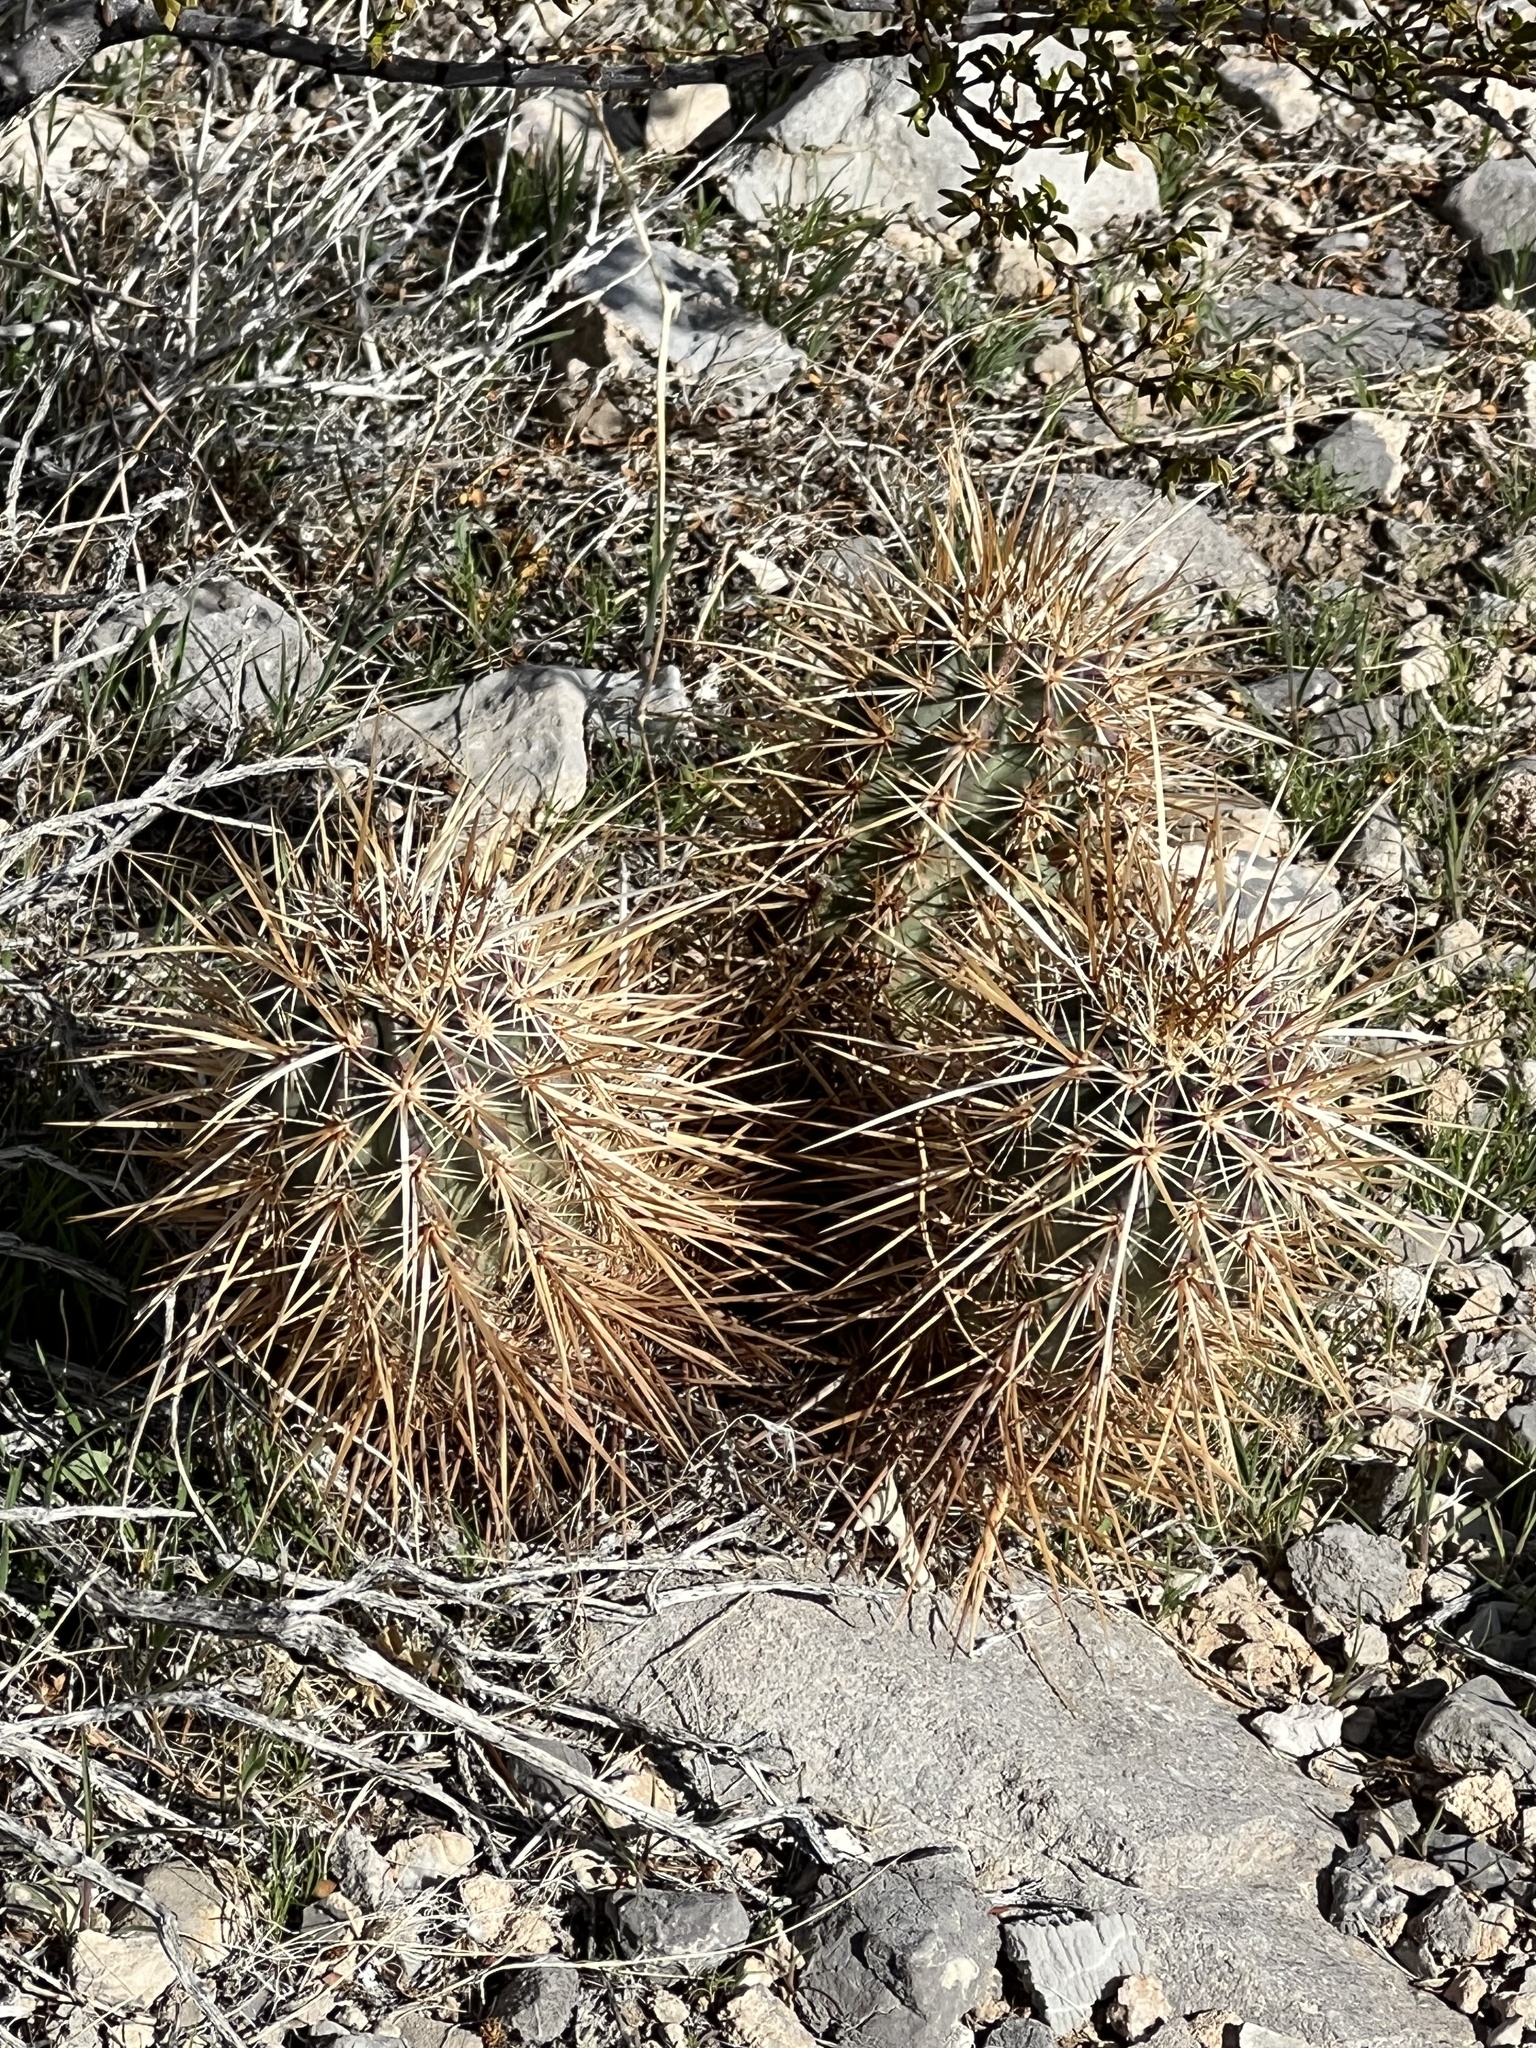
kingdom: Plantae
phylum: Tracheophyta
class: Magnoliopsida
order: Caryophyllales
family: Cactaceae
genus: Echinocereus
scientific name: Echinocereus engelmannii
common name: Engelmann's hedgehog cactus
